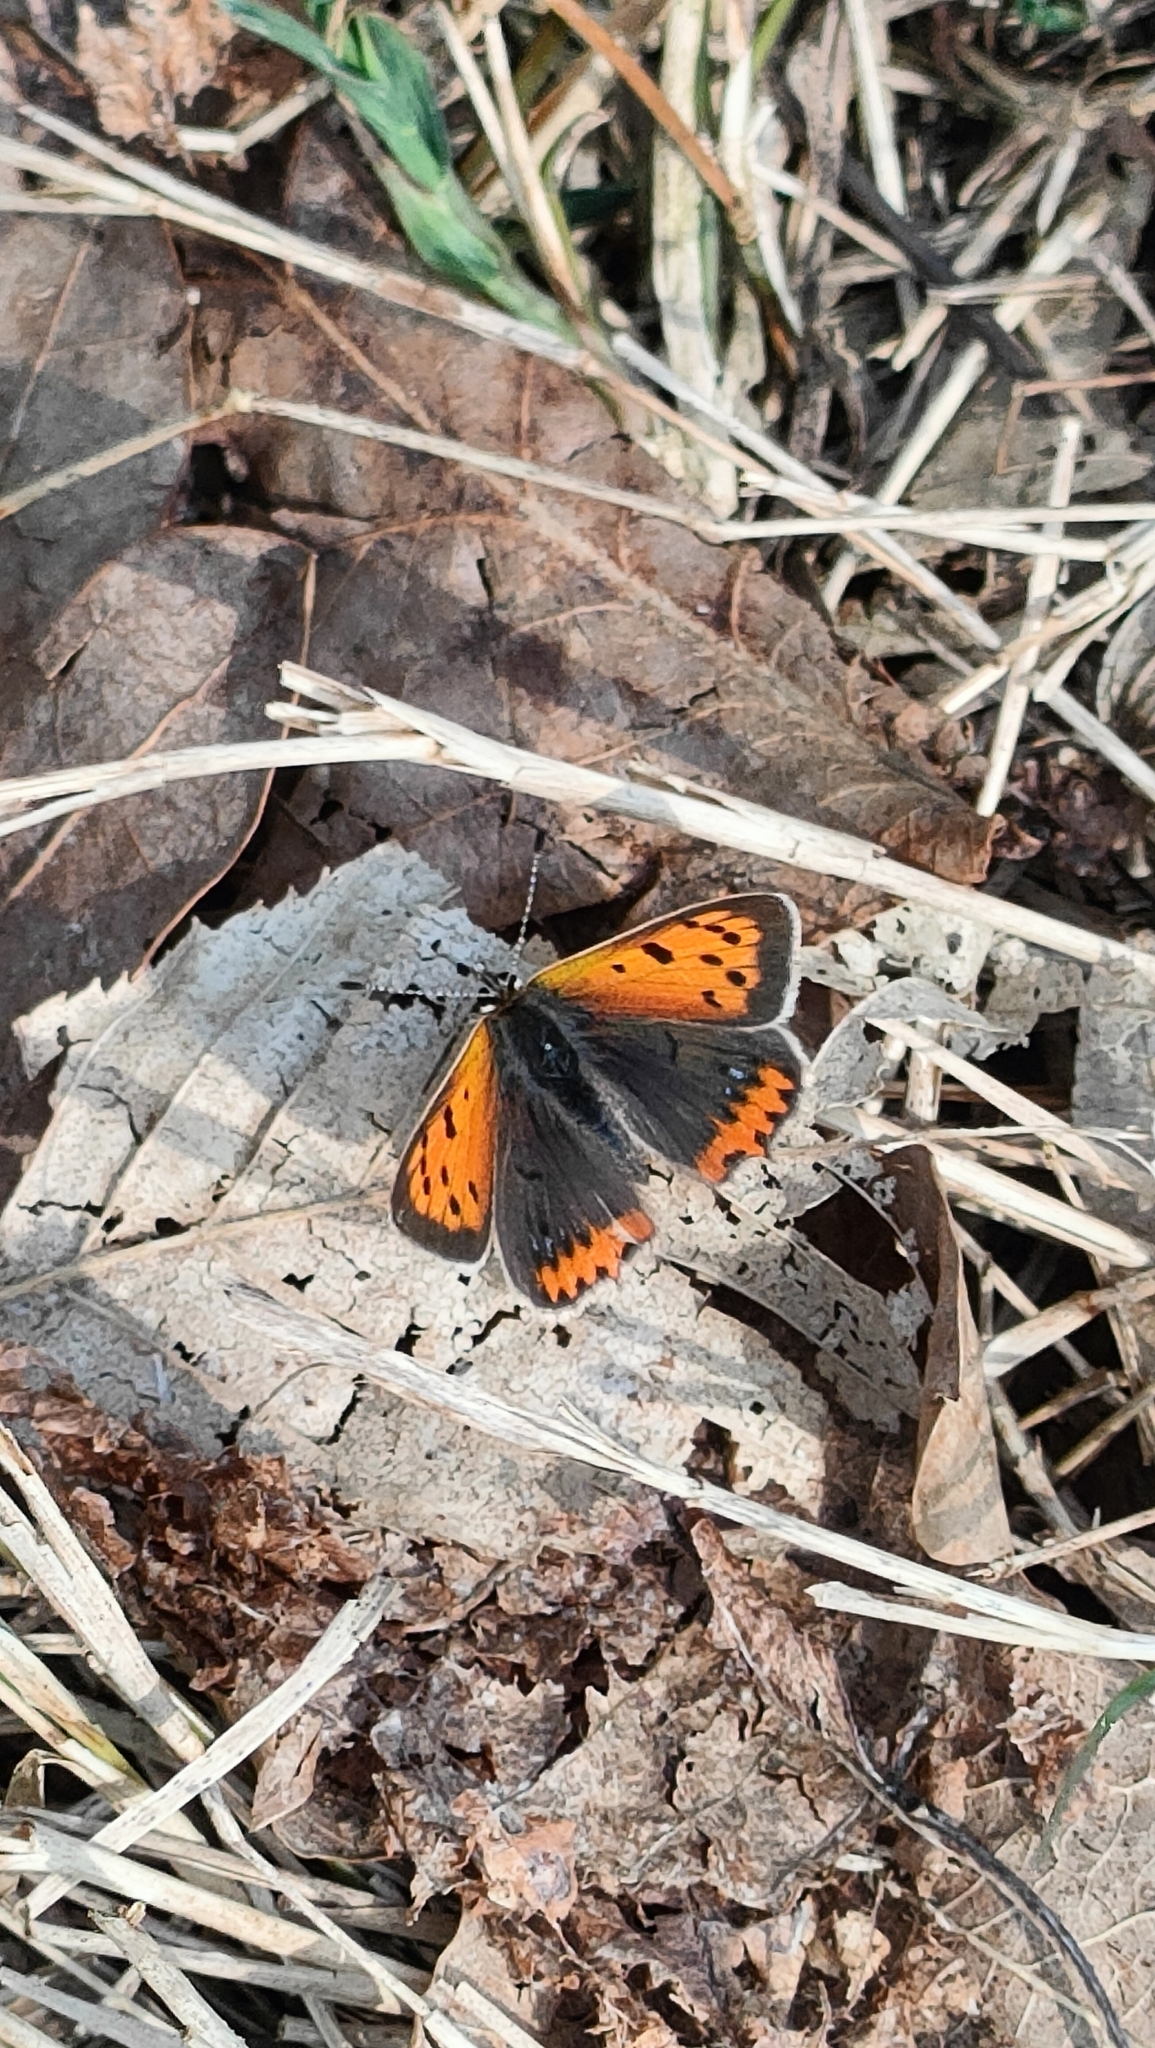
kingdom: Animalia
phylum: Arthropoda
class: Insecta
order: Lepidoptera
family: Lycaenidae
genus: Lycaena
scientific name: Lycaena phlaeas
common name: Small copper
